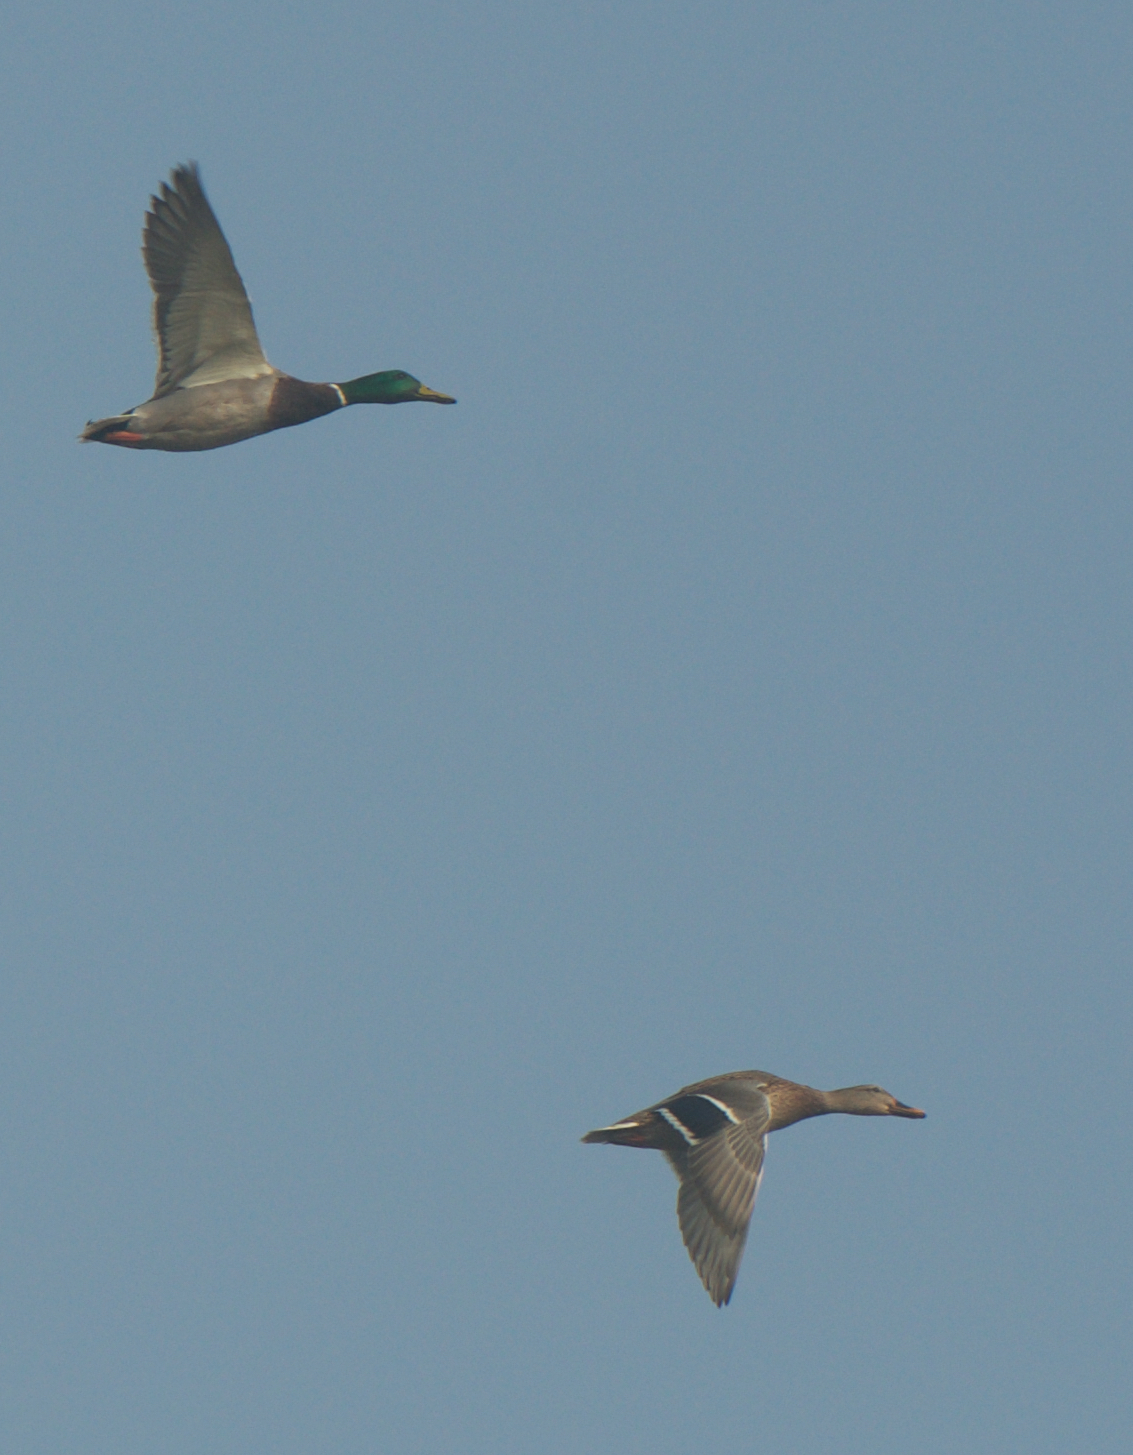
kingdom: Animalia
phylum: Chordata
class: Aves
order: Anseriformes
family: Anatidae
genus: Anas
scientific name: Anas platyrhynchos
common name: Mallard
